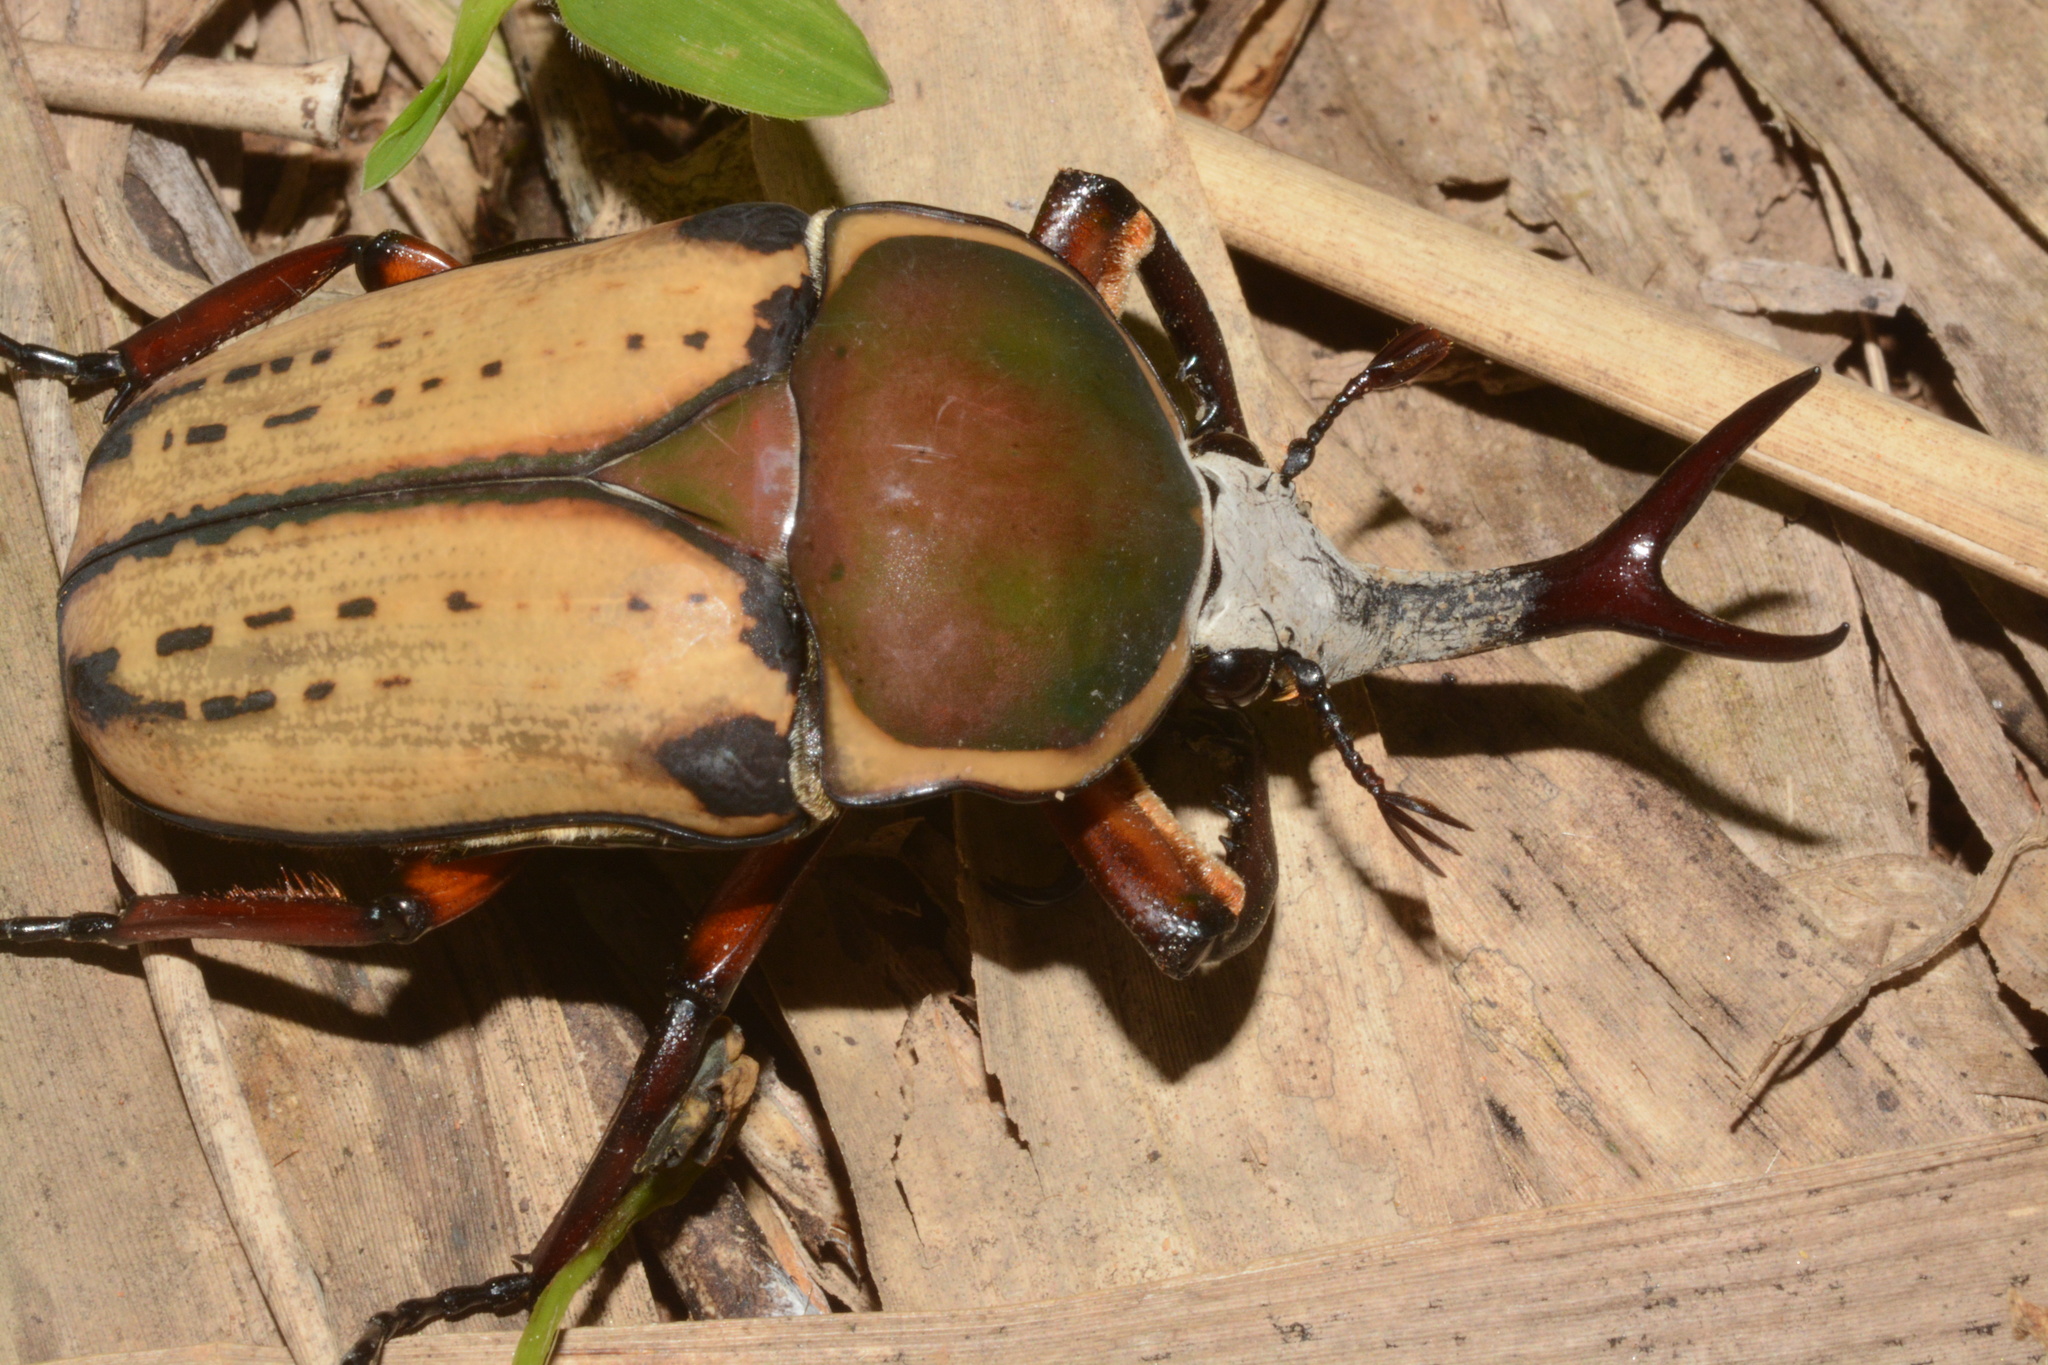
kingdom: Animalia
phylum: Arthropoda
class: Insecta
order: Coleoptera
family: Scarabaeidae
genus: Mecynorhina
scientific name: Mecynorhina harrisii
